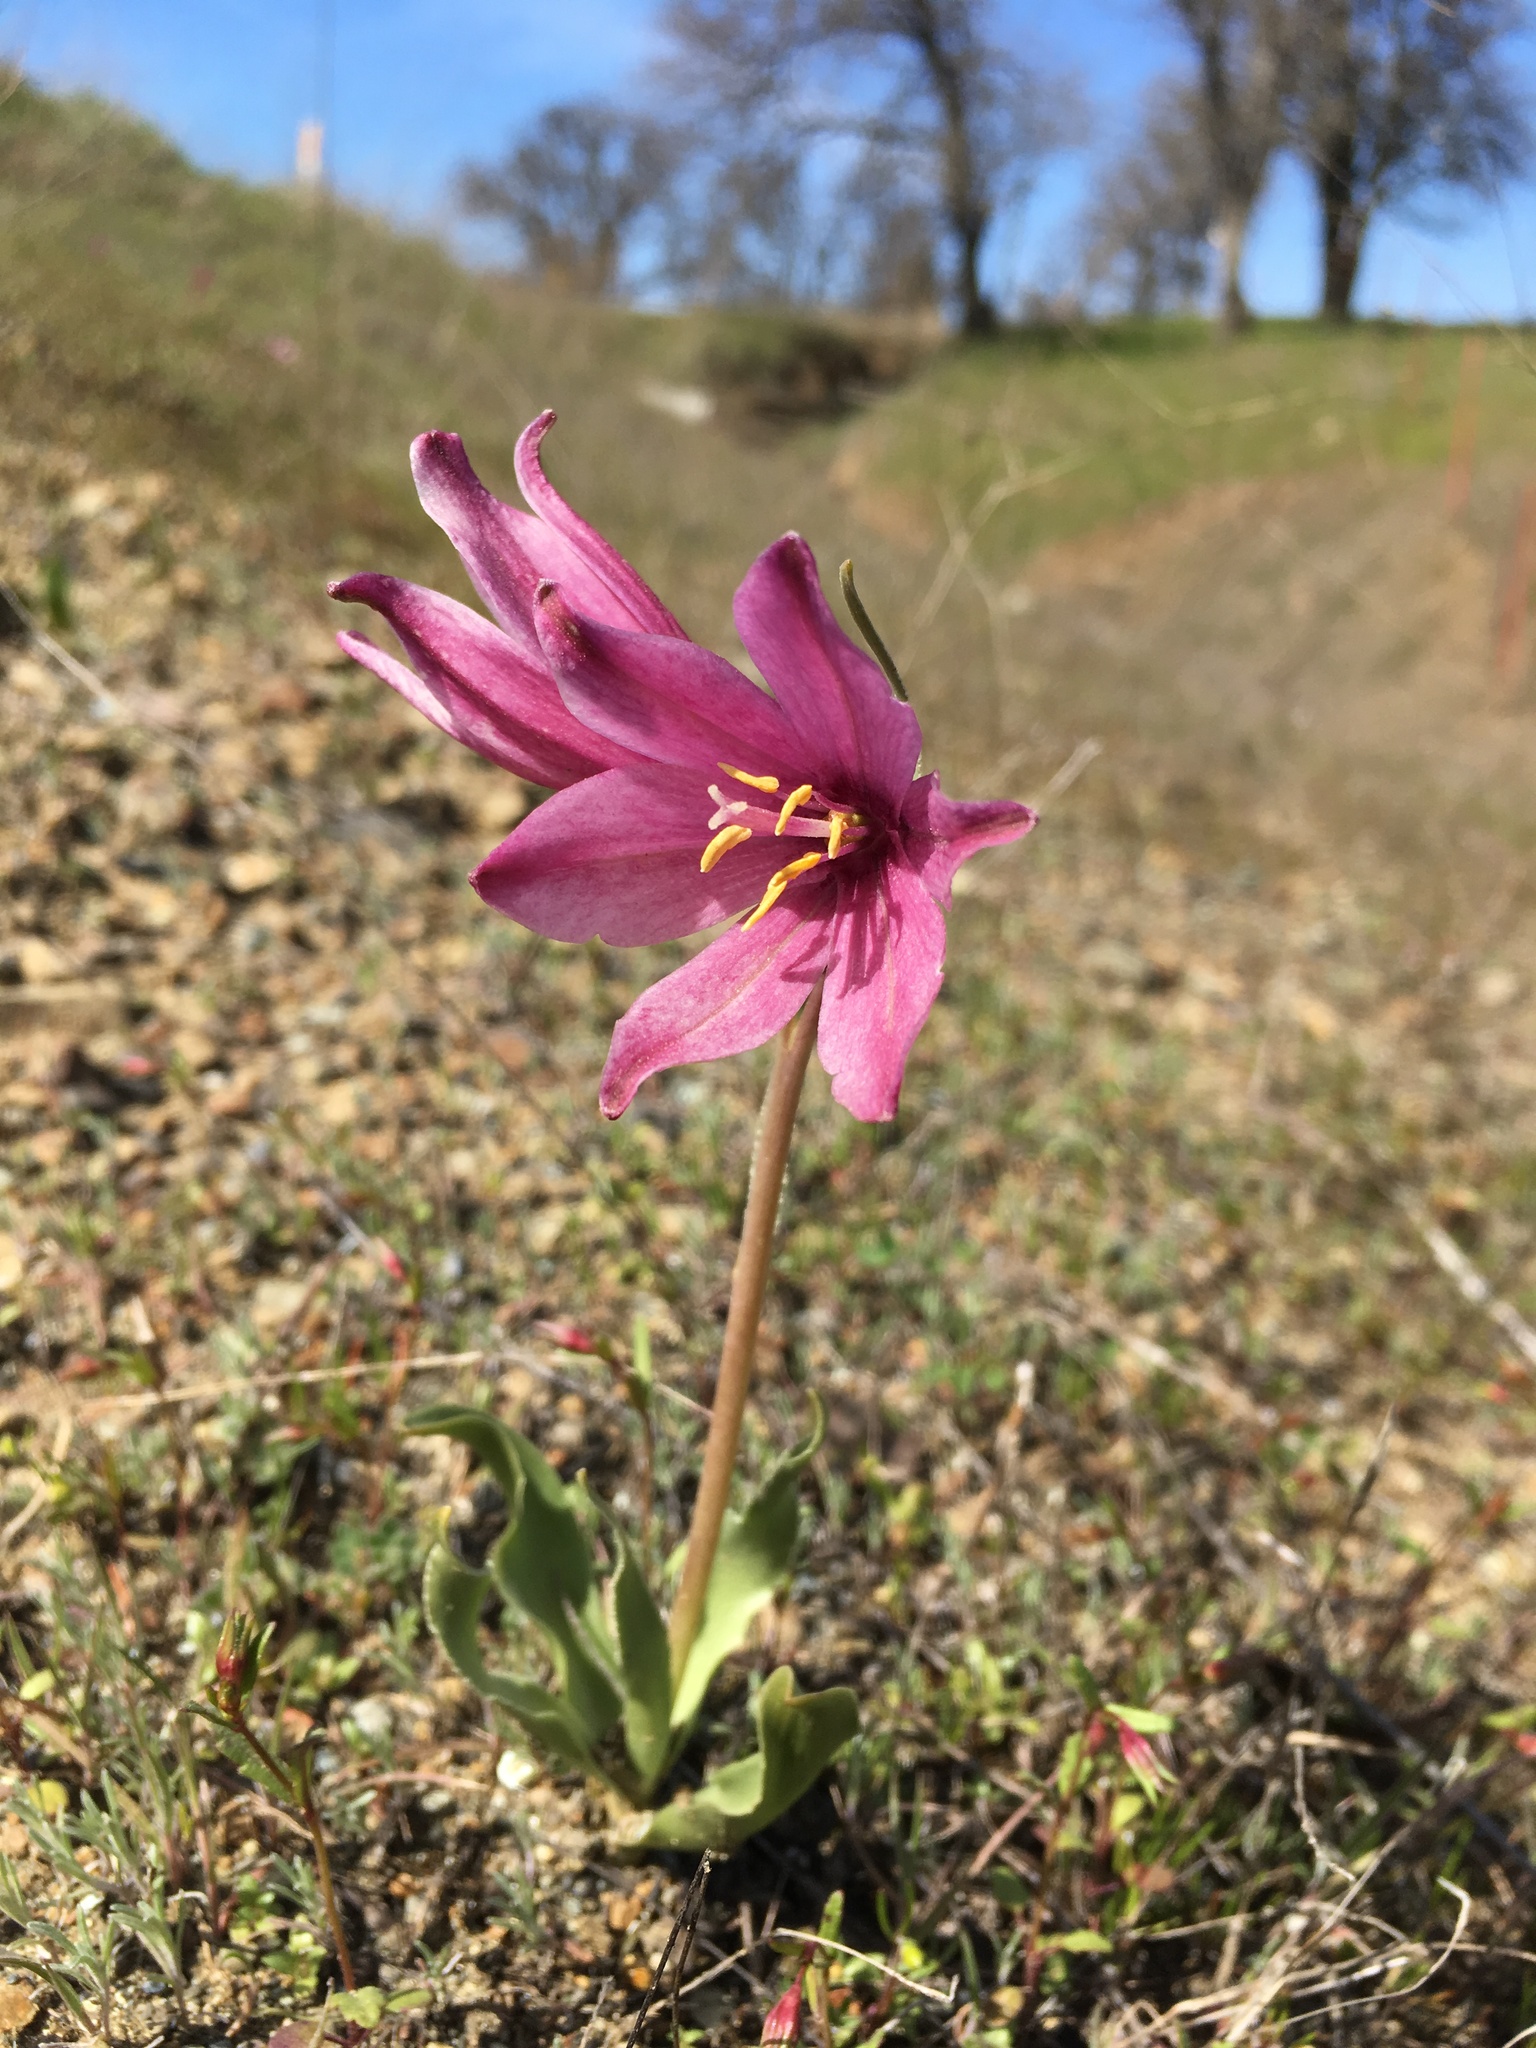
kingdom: Plantae
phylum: Tracheophyta
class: Liliopsida
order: Liliales
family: Liliaceae
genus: Fritillaria
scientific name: Fritillaria pluriflora
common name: Adobe-lily
